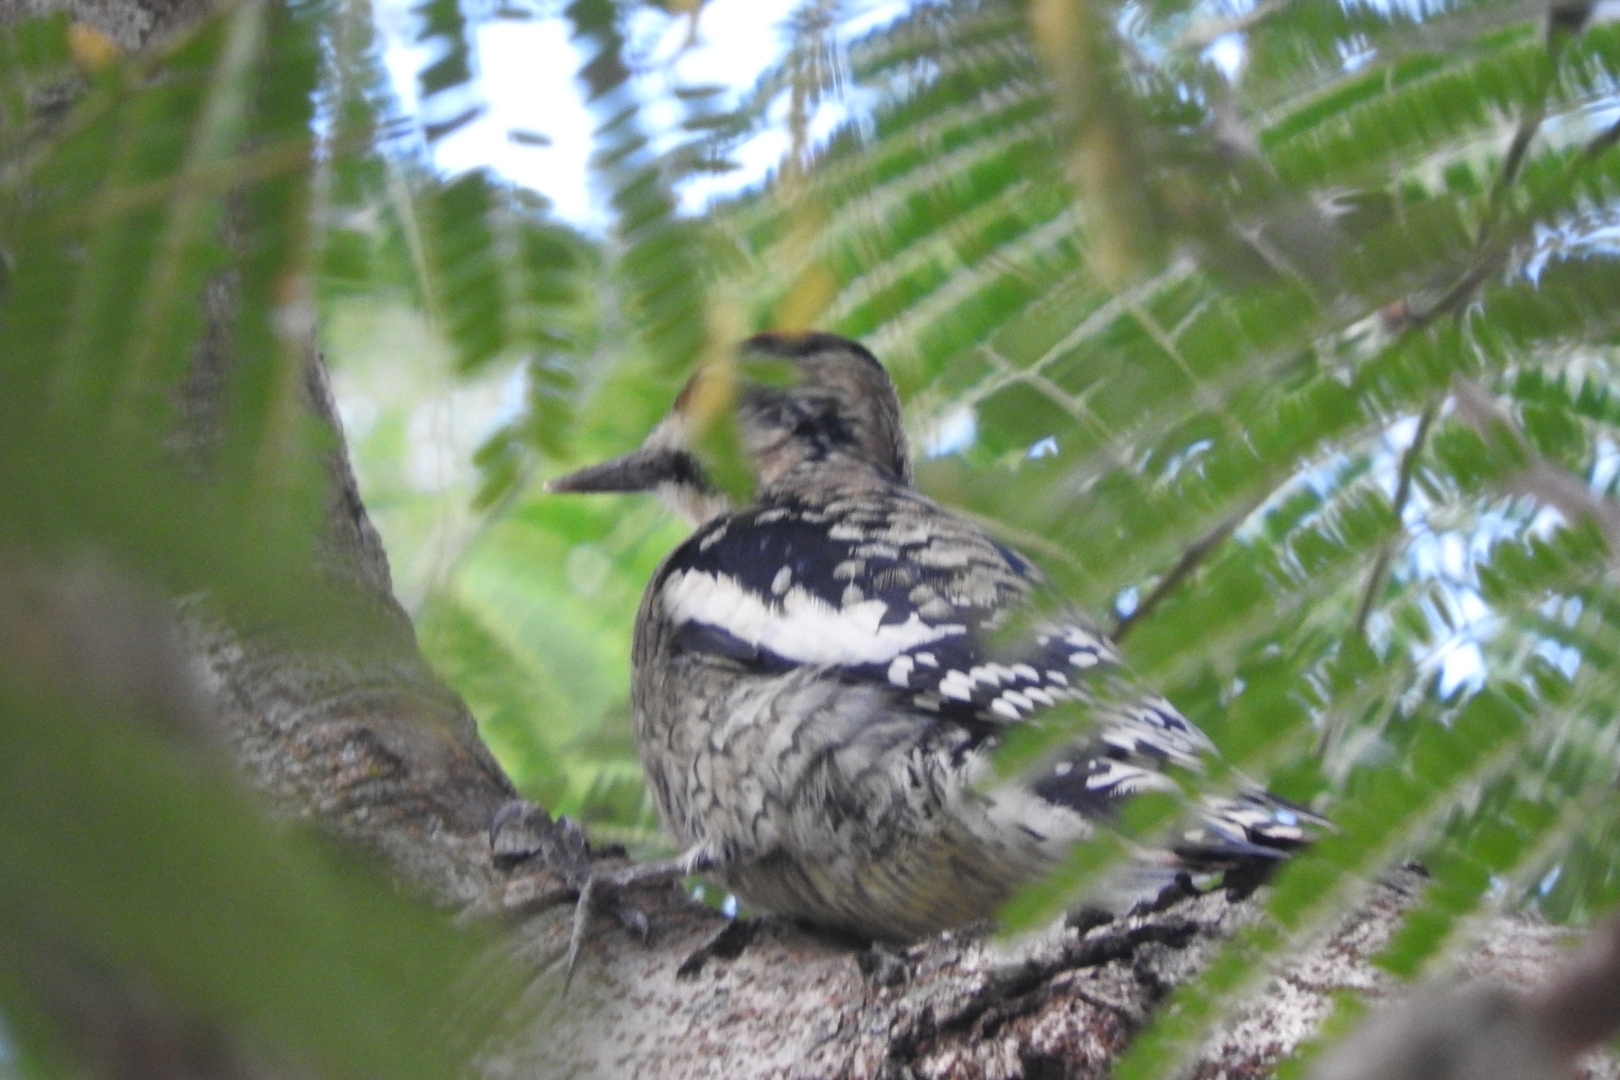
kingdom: Animalia
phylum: Chordata
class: Aves
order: Piciformes
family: Picidae
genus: Sphyrapicus
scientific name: Sphyrapicus varius
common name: Yellow-bellied sapsucker
